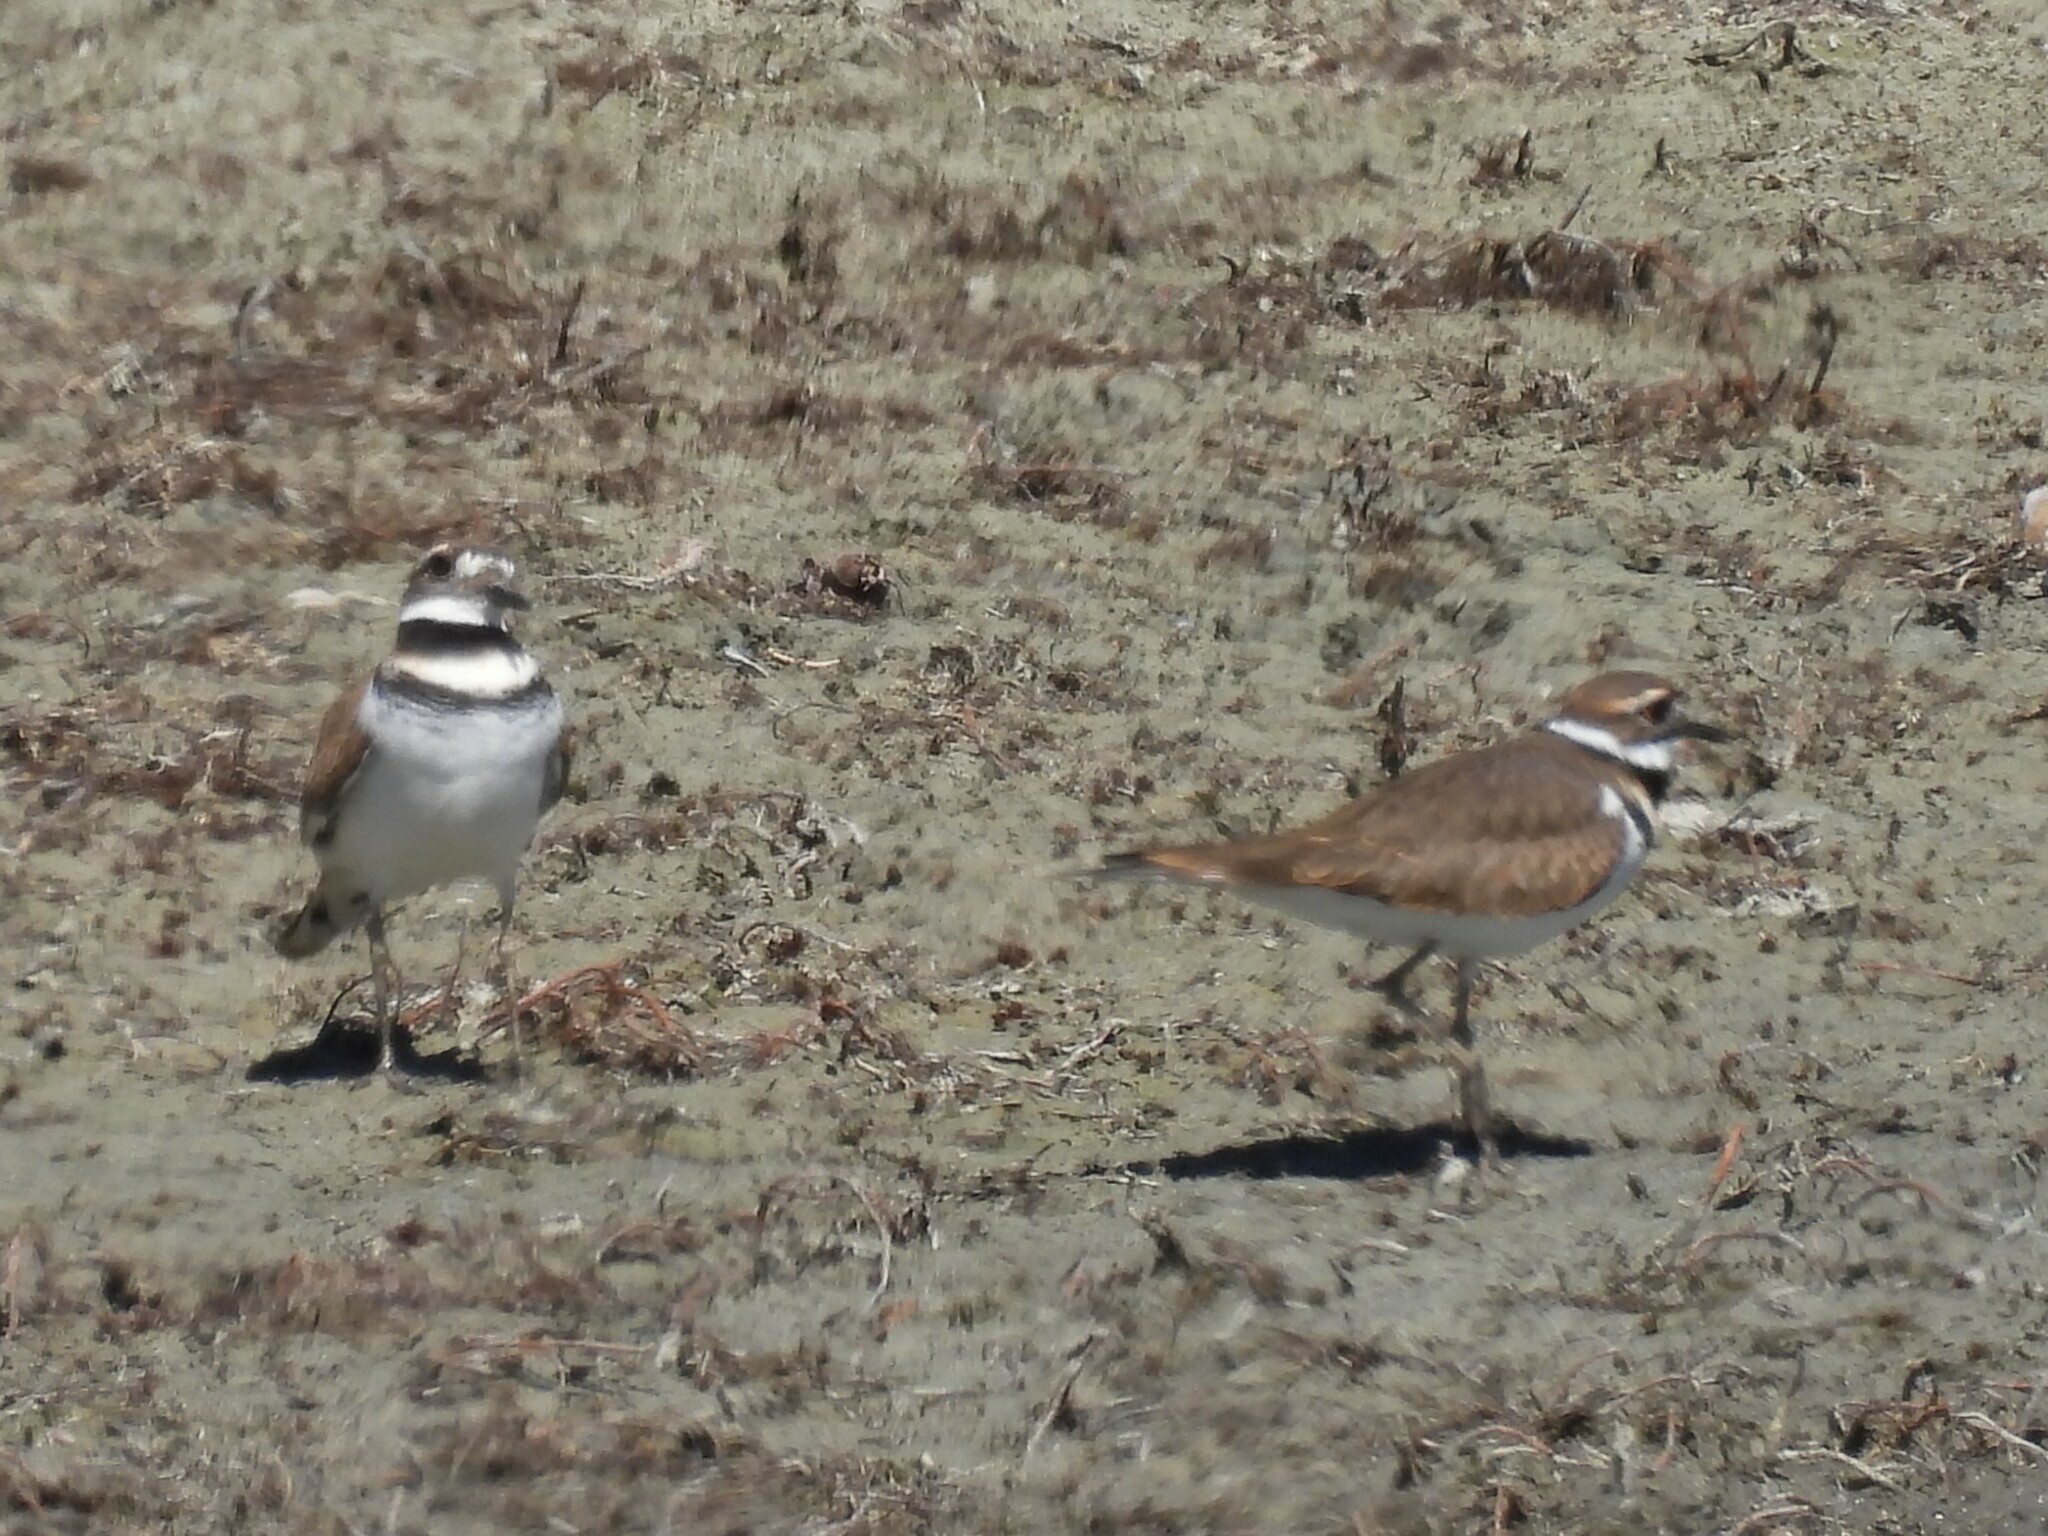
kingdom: Animalia
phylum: Chordata
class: Aves
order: Charadriiformes
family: Charadriidae
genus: Charadrius
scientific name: Charadrius vociferus
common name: Killdeer
